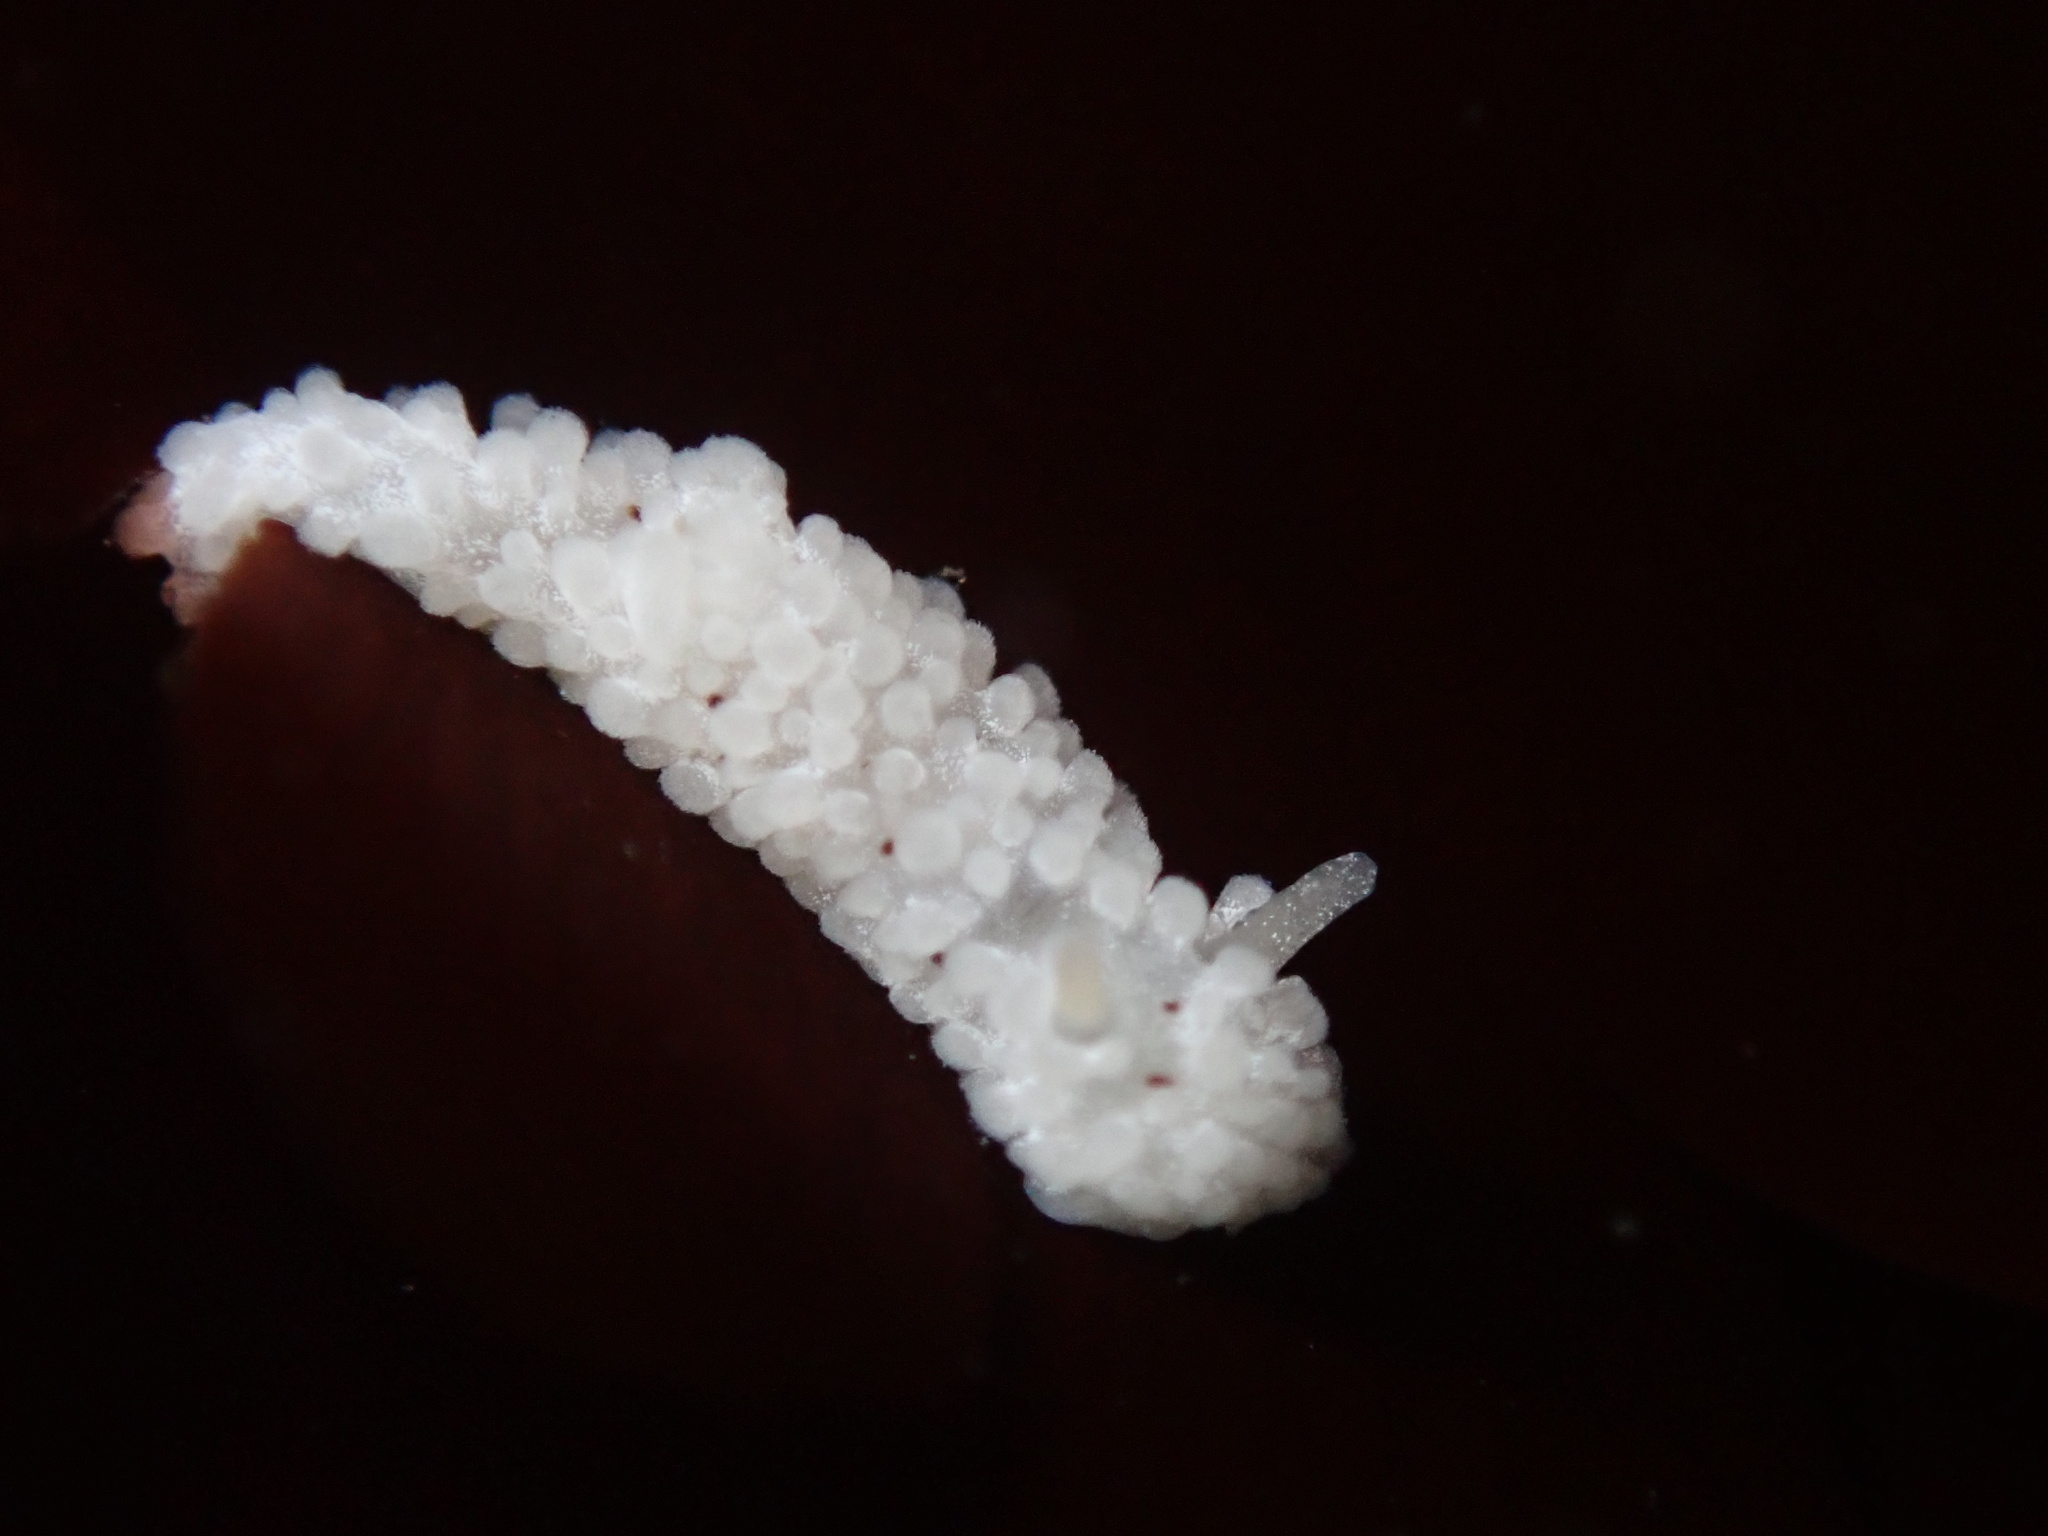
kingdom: Animalia
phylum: Mollusca
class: Gastropoda
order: Nudibranchia
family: Aegiridae
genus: Aegires
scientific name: Aegires albopunctatus
